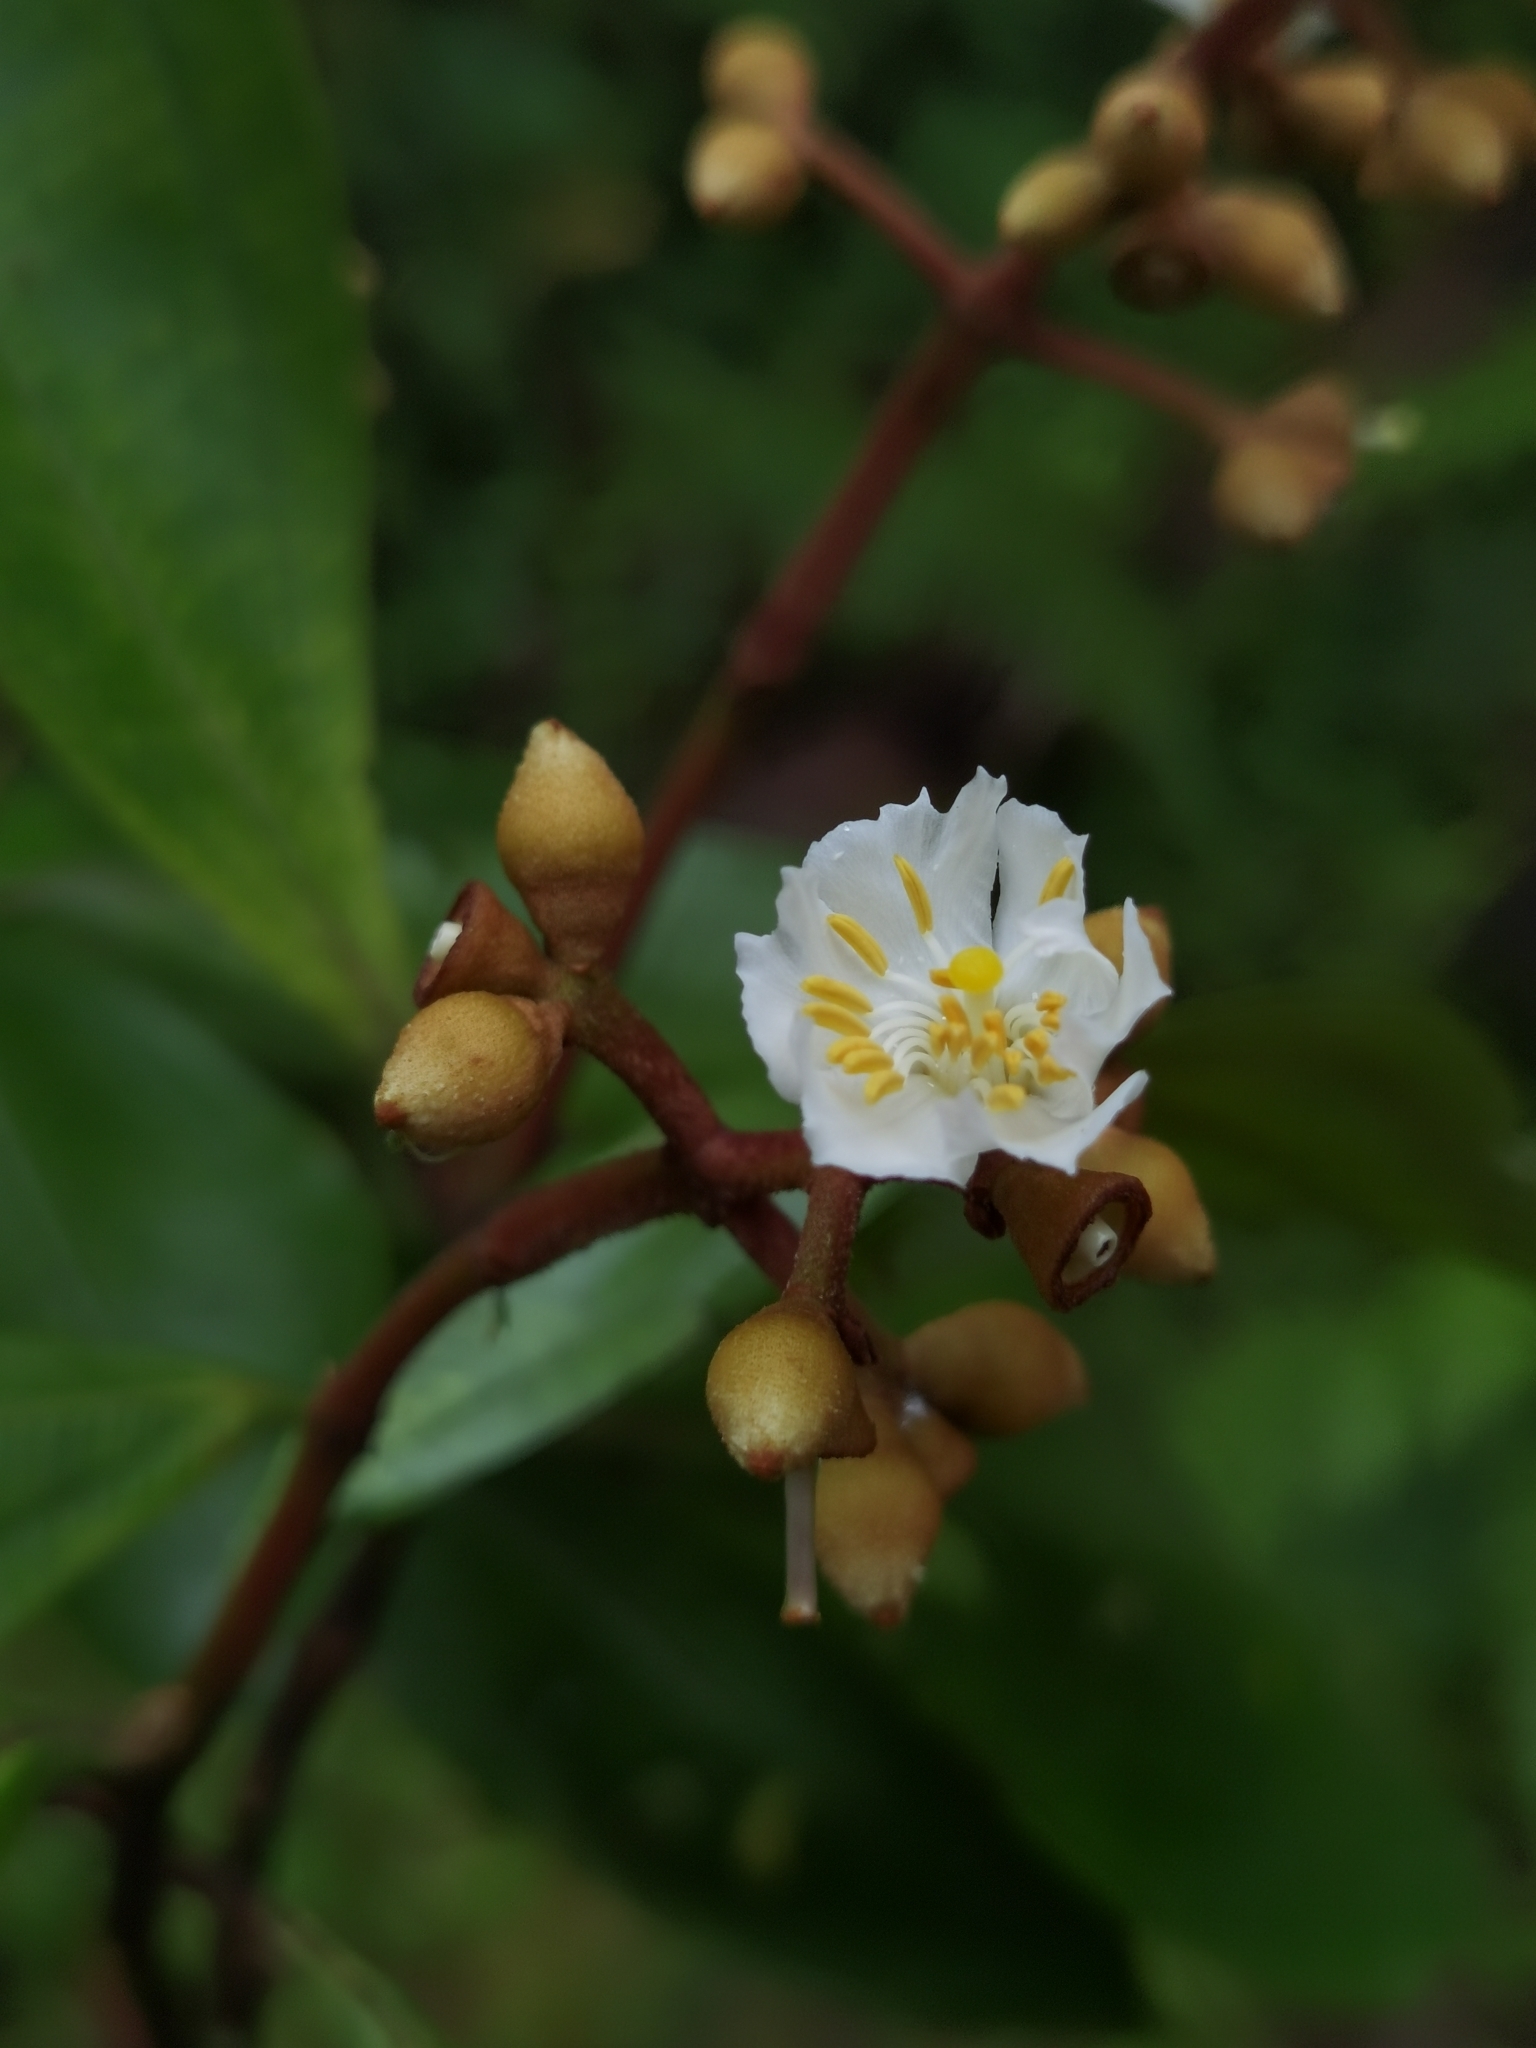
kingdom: Plantae
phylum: Tracheophyta
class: Magnoliopsida
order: Myrtales
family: Melastomataceae
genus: Miconia
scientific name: Miconia conorufescens
